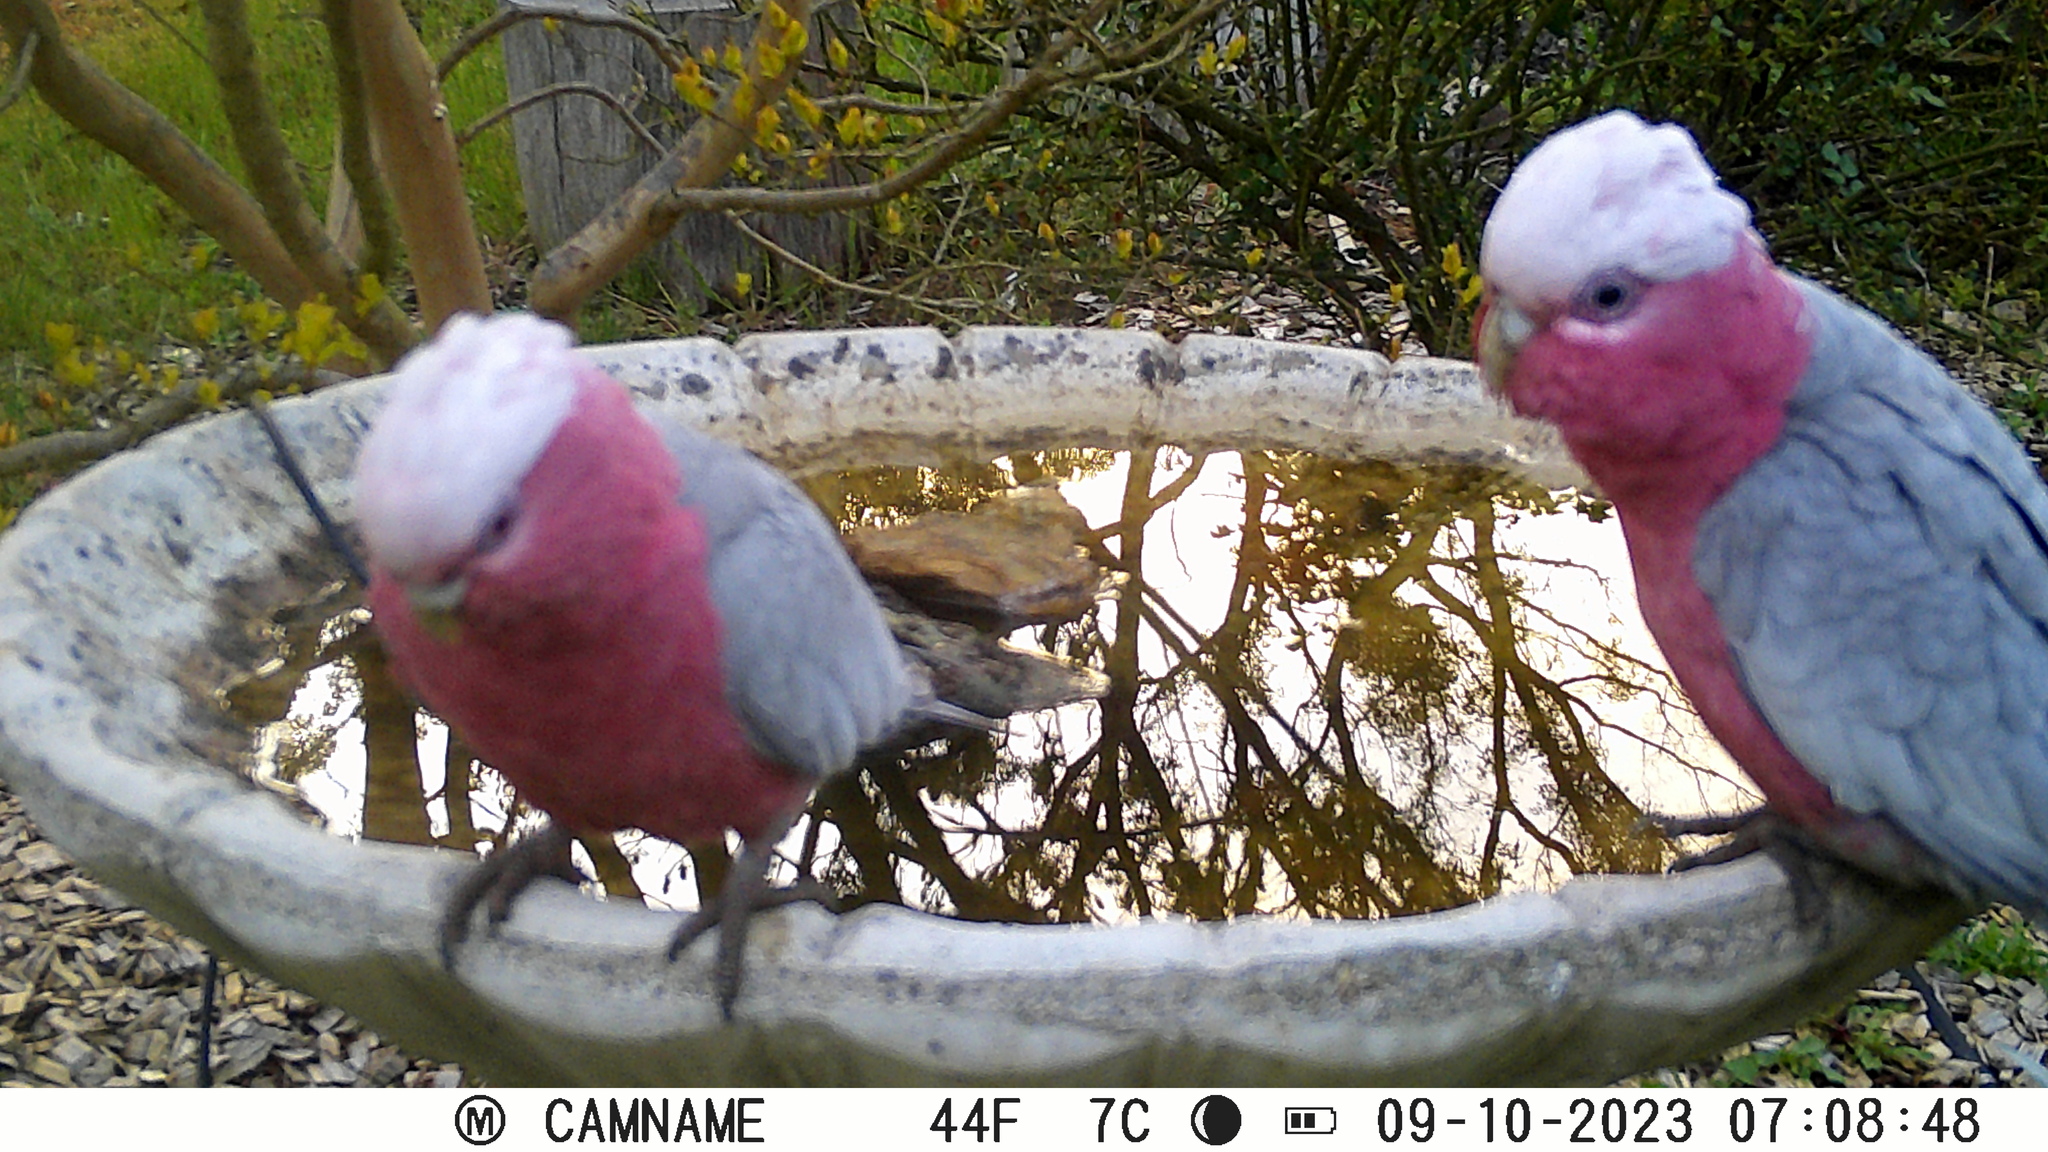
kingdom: Animalia
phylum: Chordata
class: Aves
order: Psittaciformes
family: Psittacidae
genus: Eolophus
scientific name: Eolophus roseicapilla
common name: Galah
